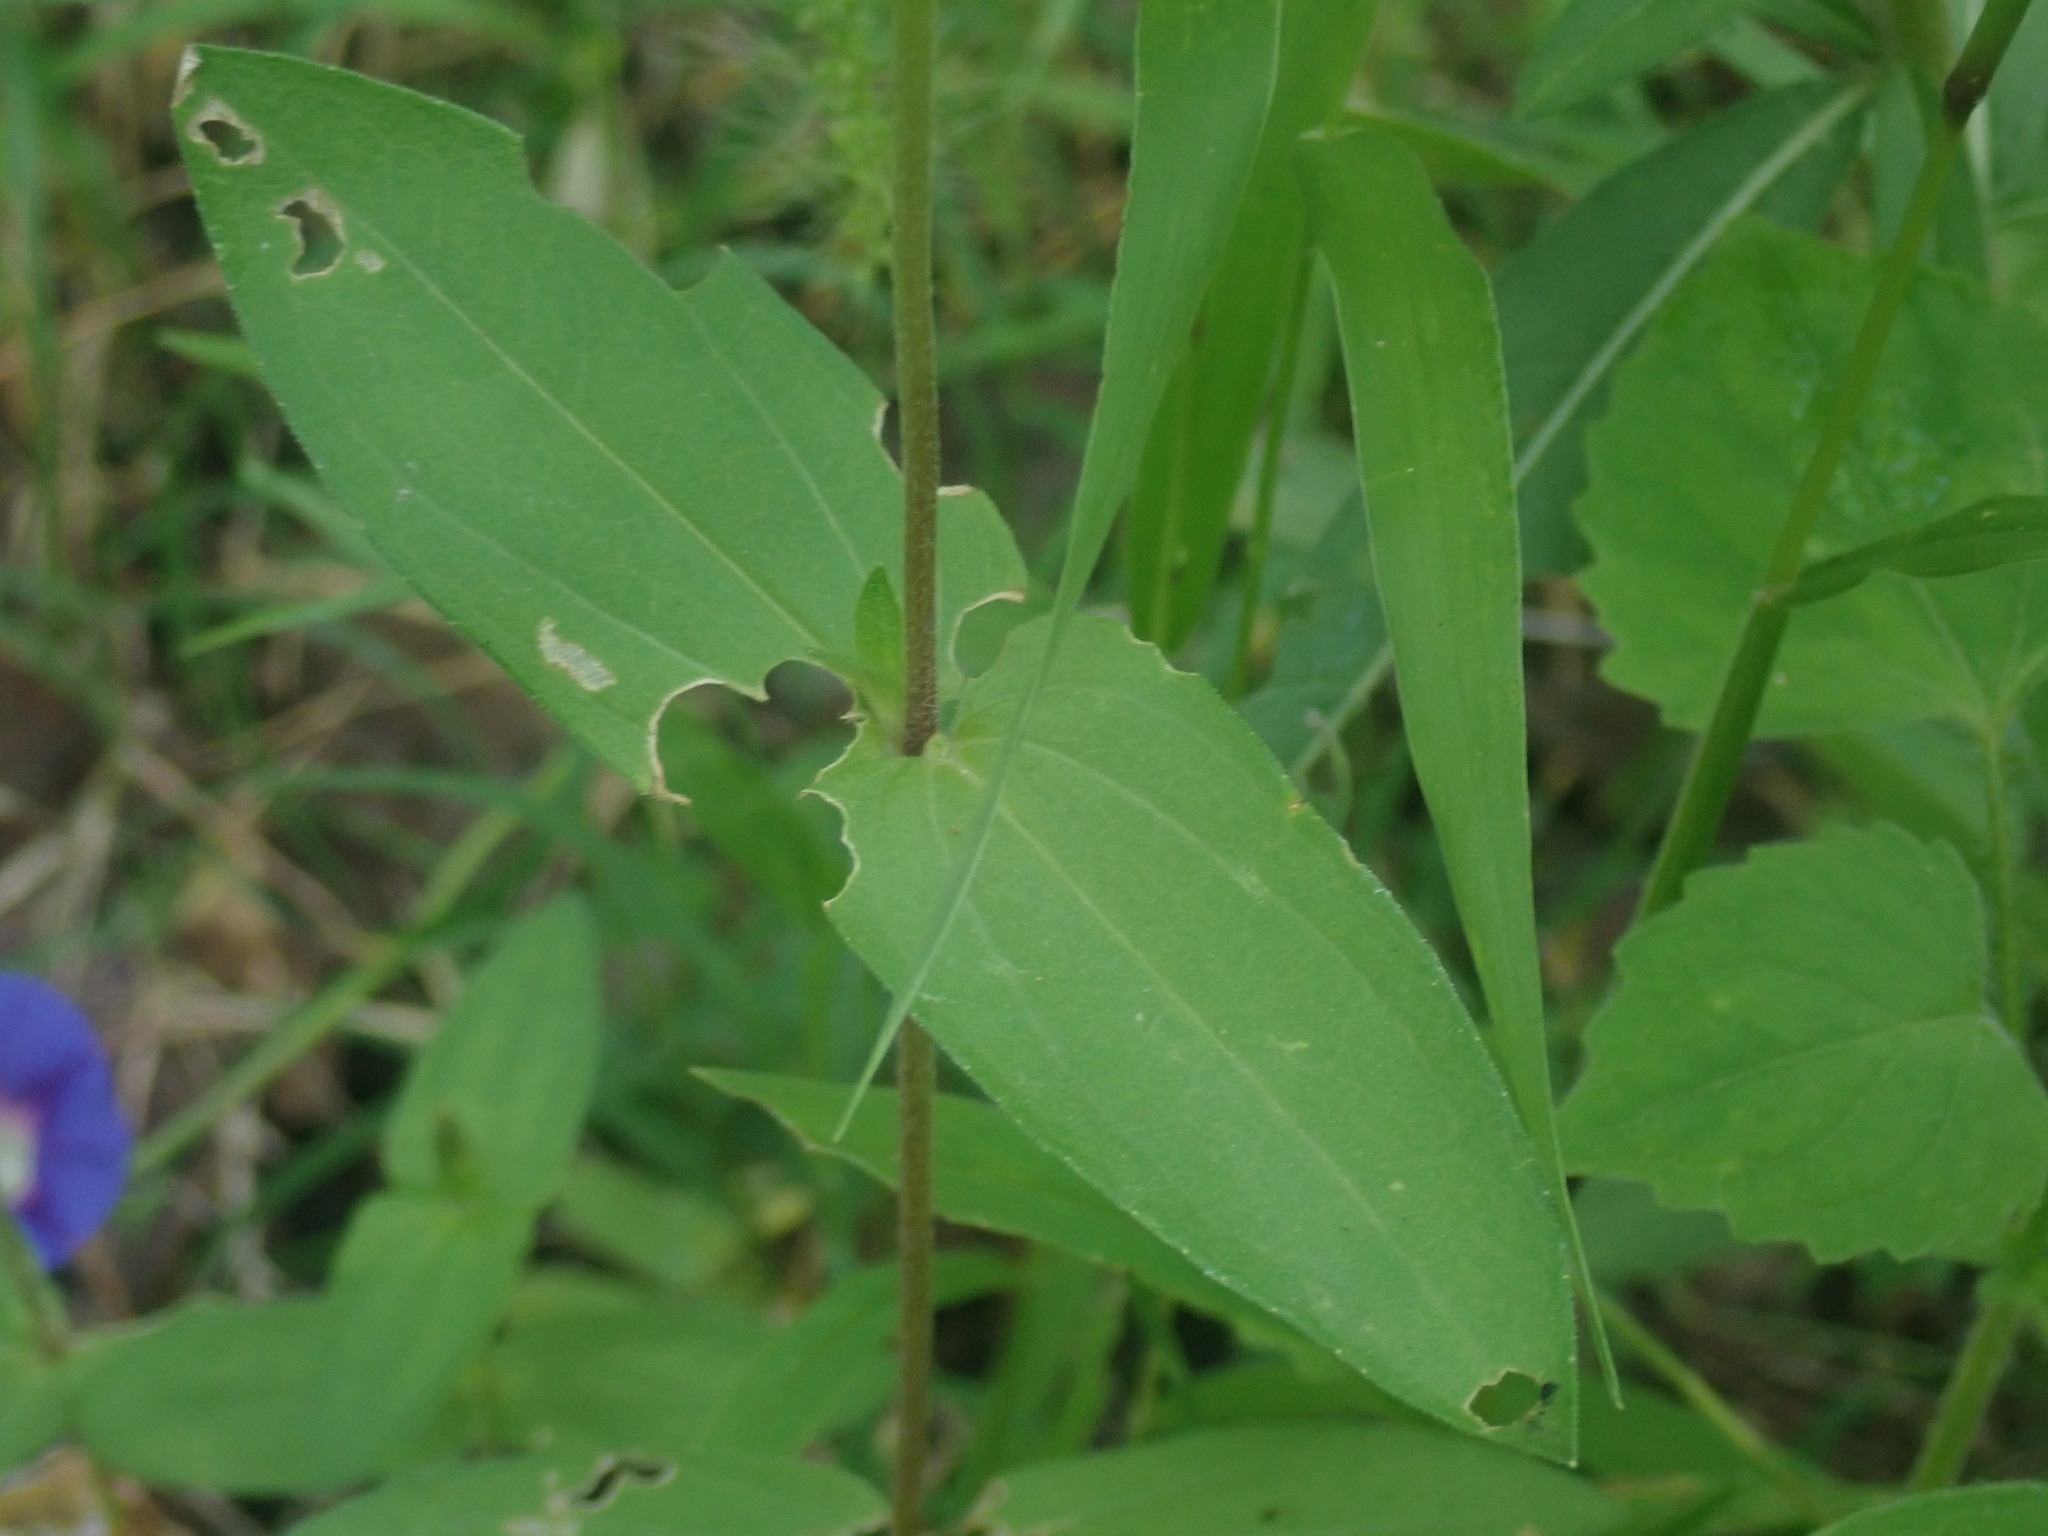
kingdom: Plantae
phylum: Tracheophyta
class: Magnoliopsida
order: Asterales
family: Asteraceae
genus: Zinnia
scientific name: Zinnia peruviana
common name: Peruvian zinnia
